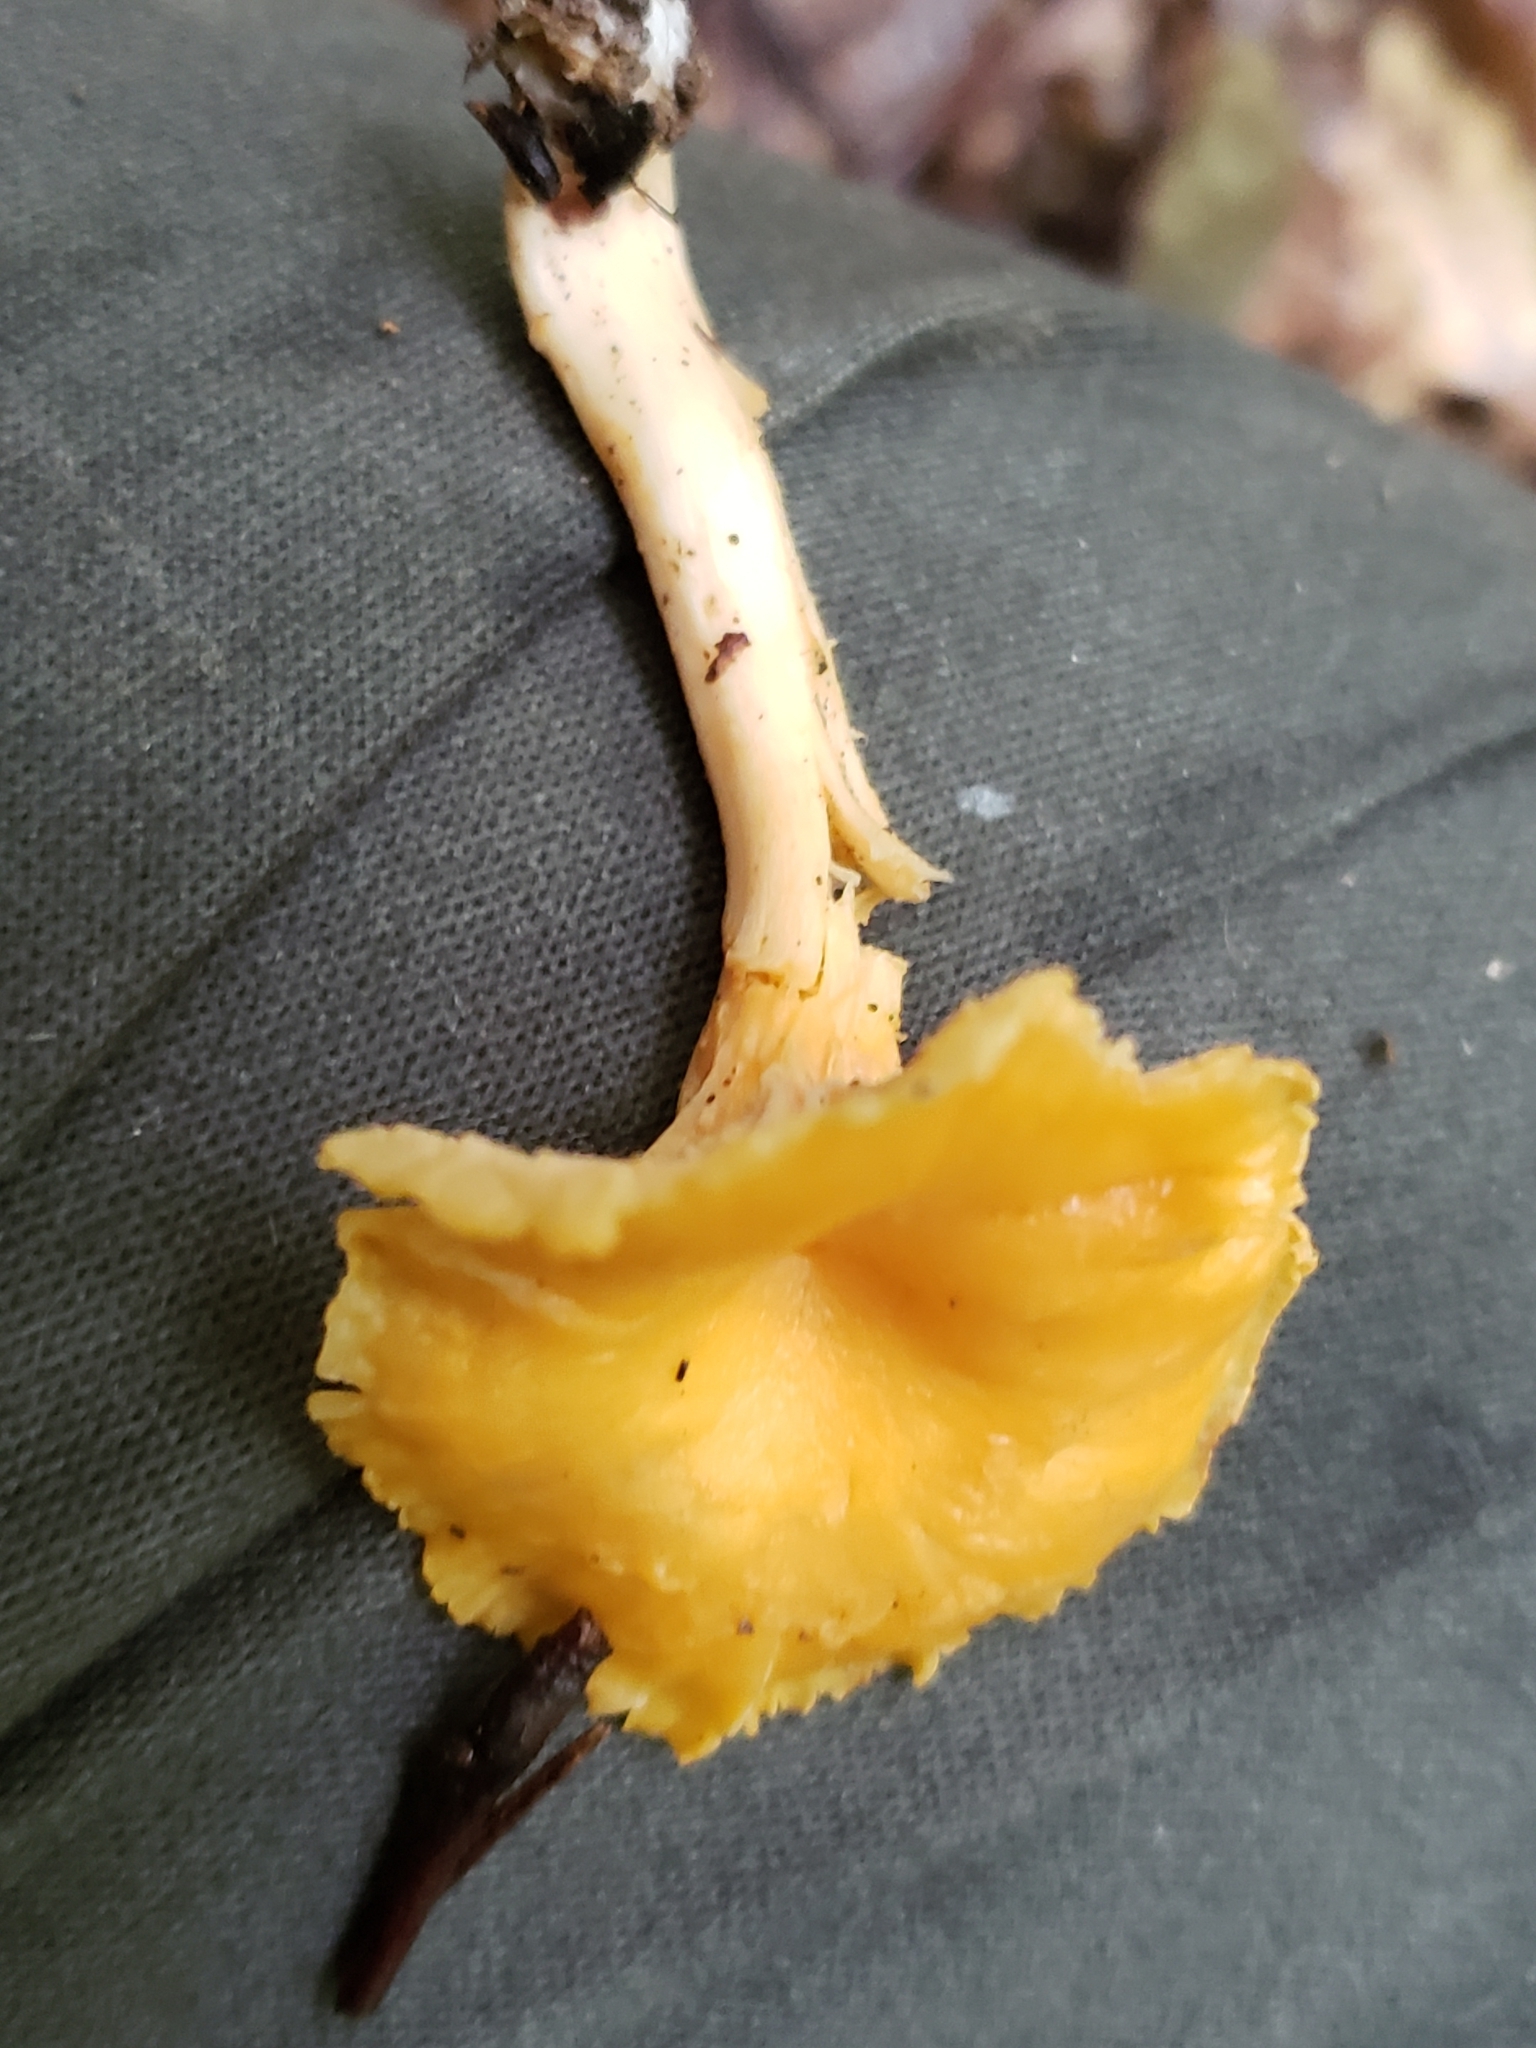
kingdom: Fungi
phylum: Basidiomycota
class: Agaricomycetes
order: Cantharellales
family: Hydnaceae
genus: Craterellus
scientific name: Craterellus ignicolor
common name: Flame chanterelle
